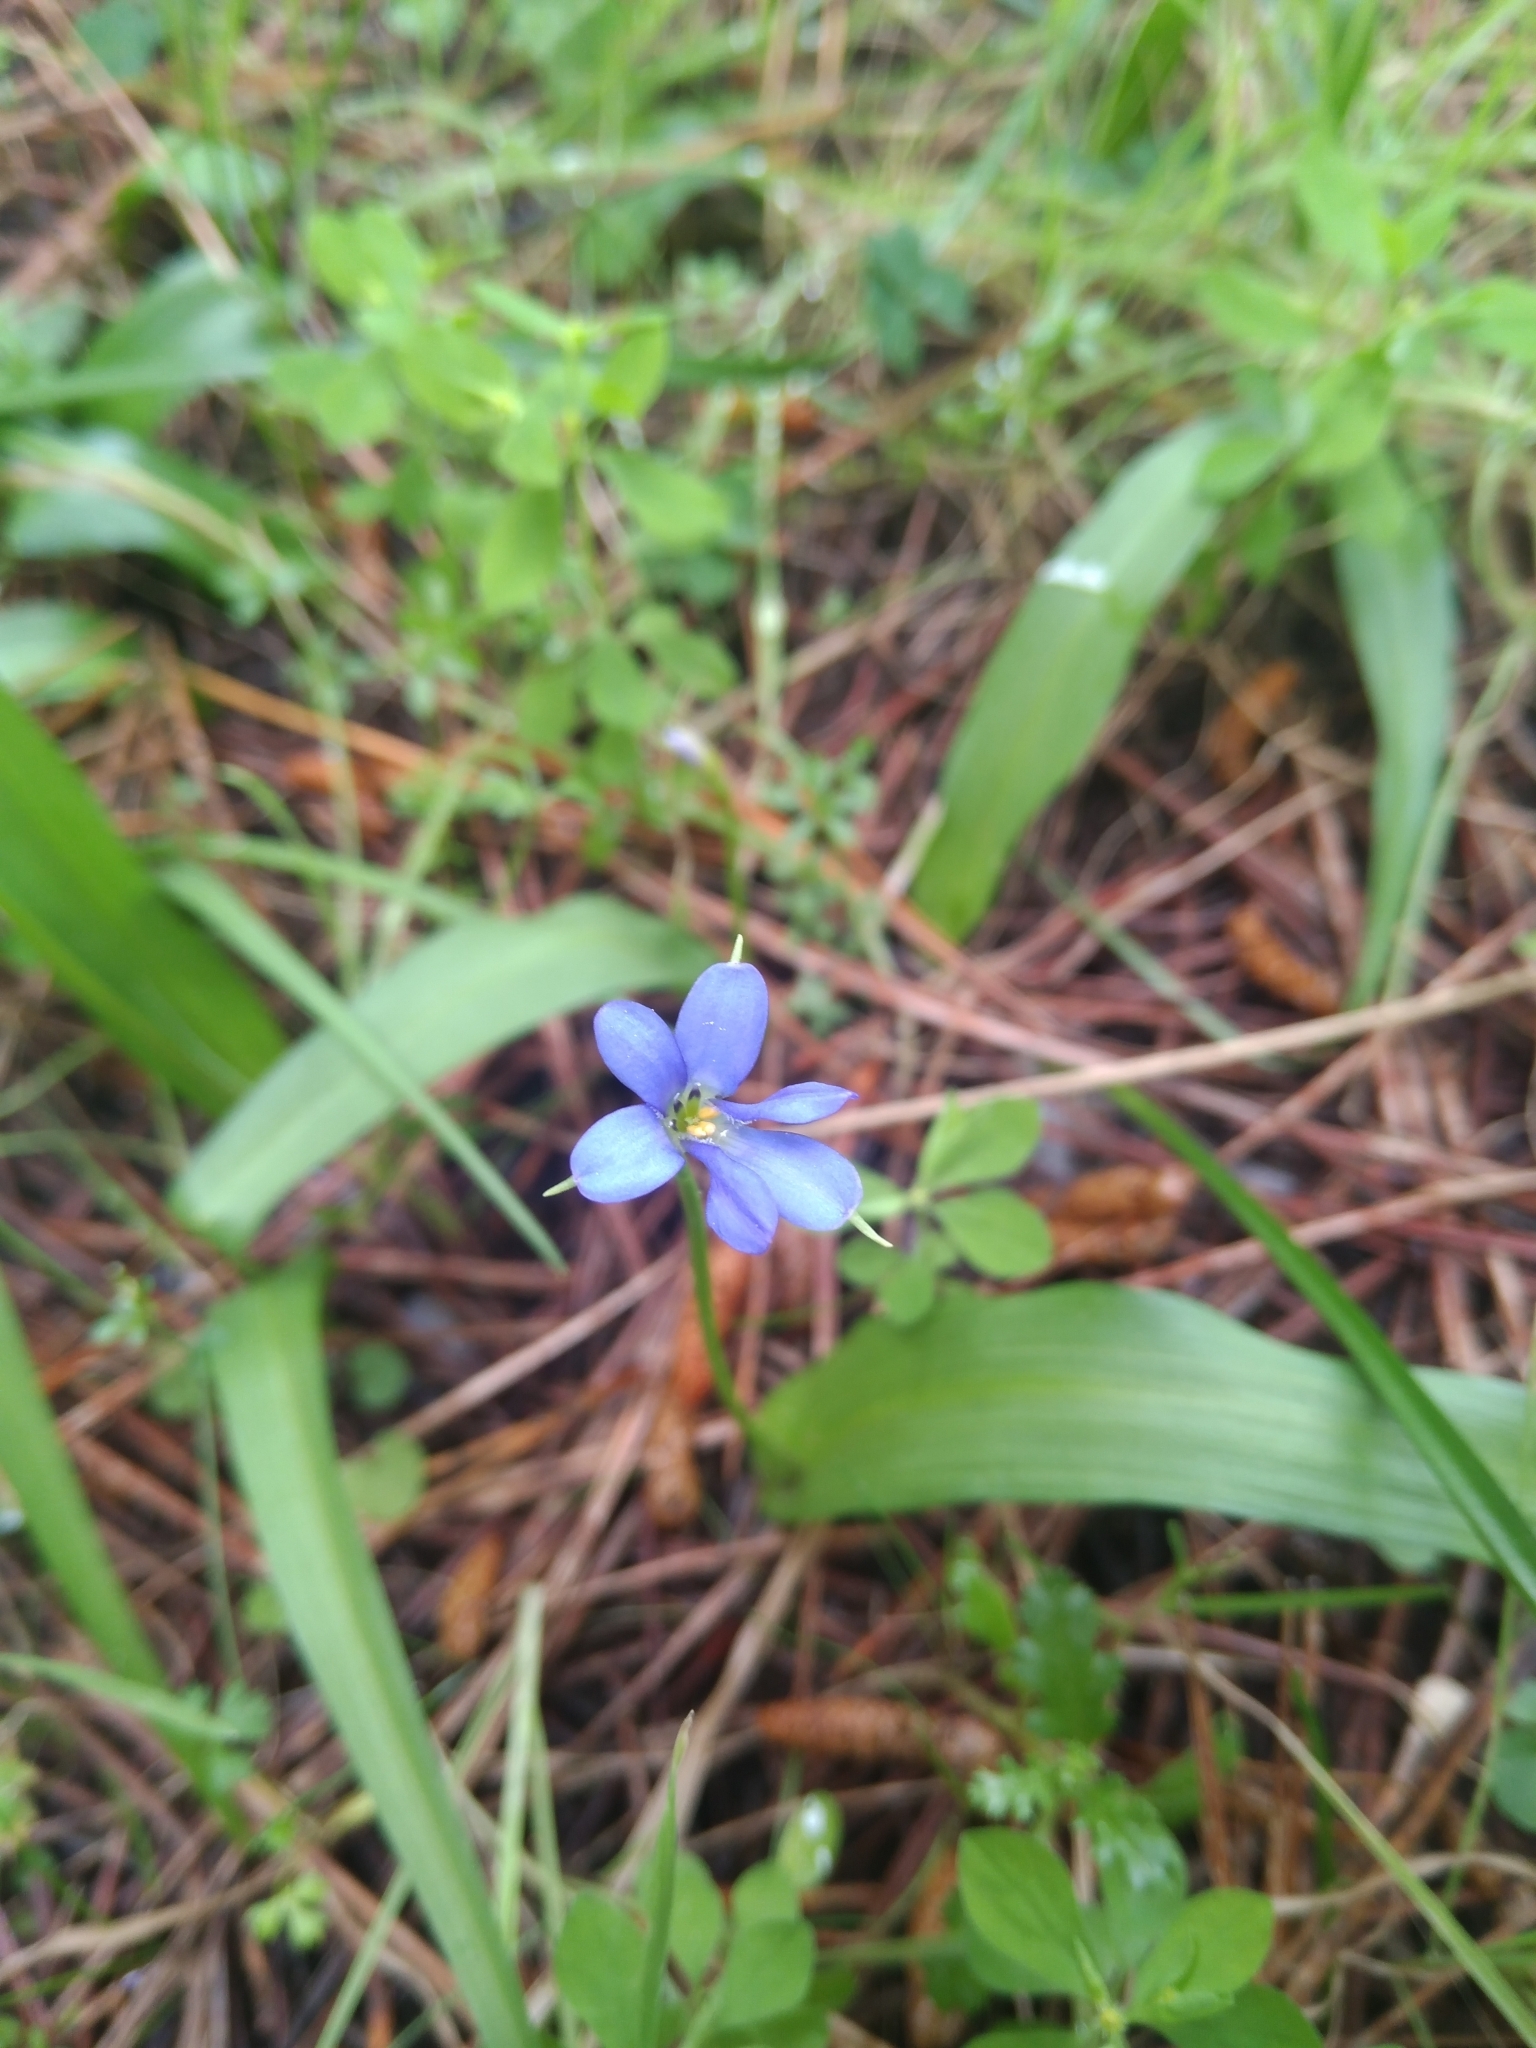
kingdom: Plantae
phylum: Tracheophyta
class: Liliopsida
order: Asparagales
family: Tecophilaeaceae
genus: Tecophilaea
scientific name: Tecophilaea violiflora
